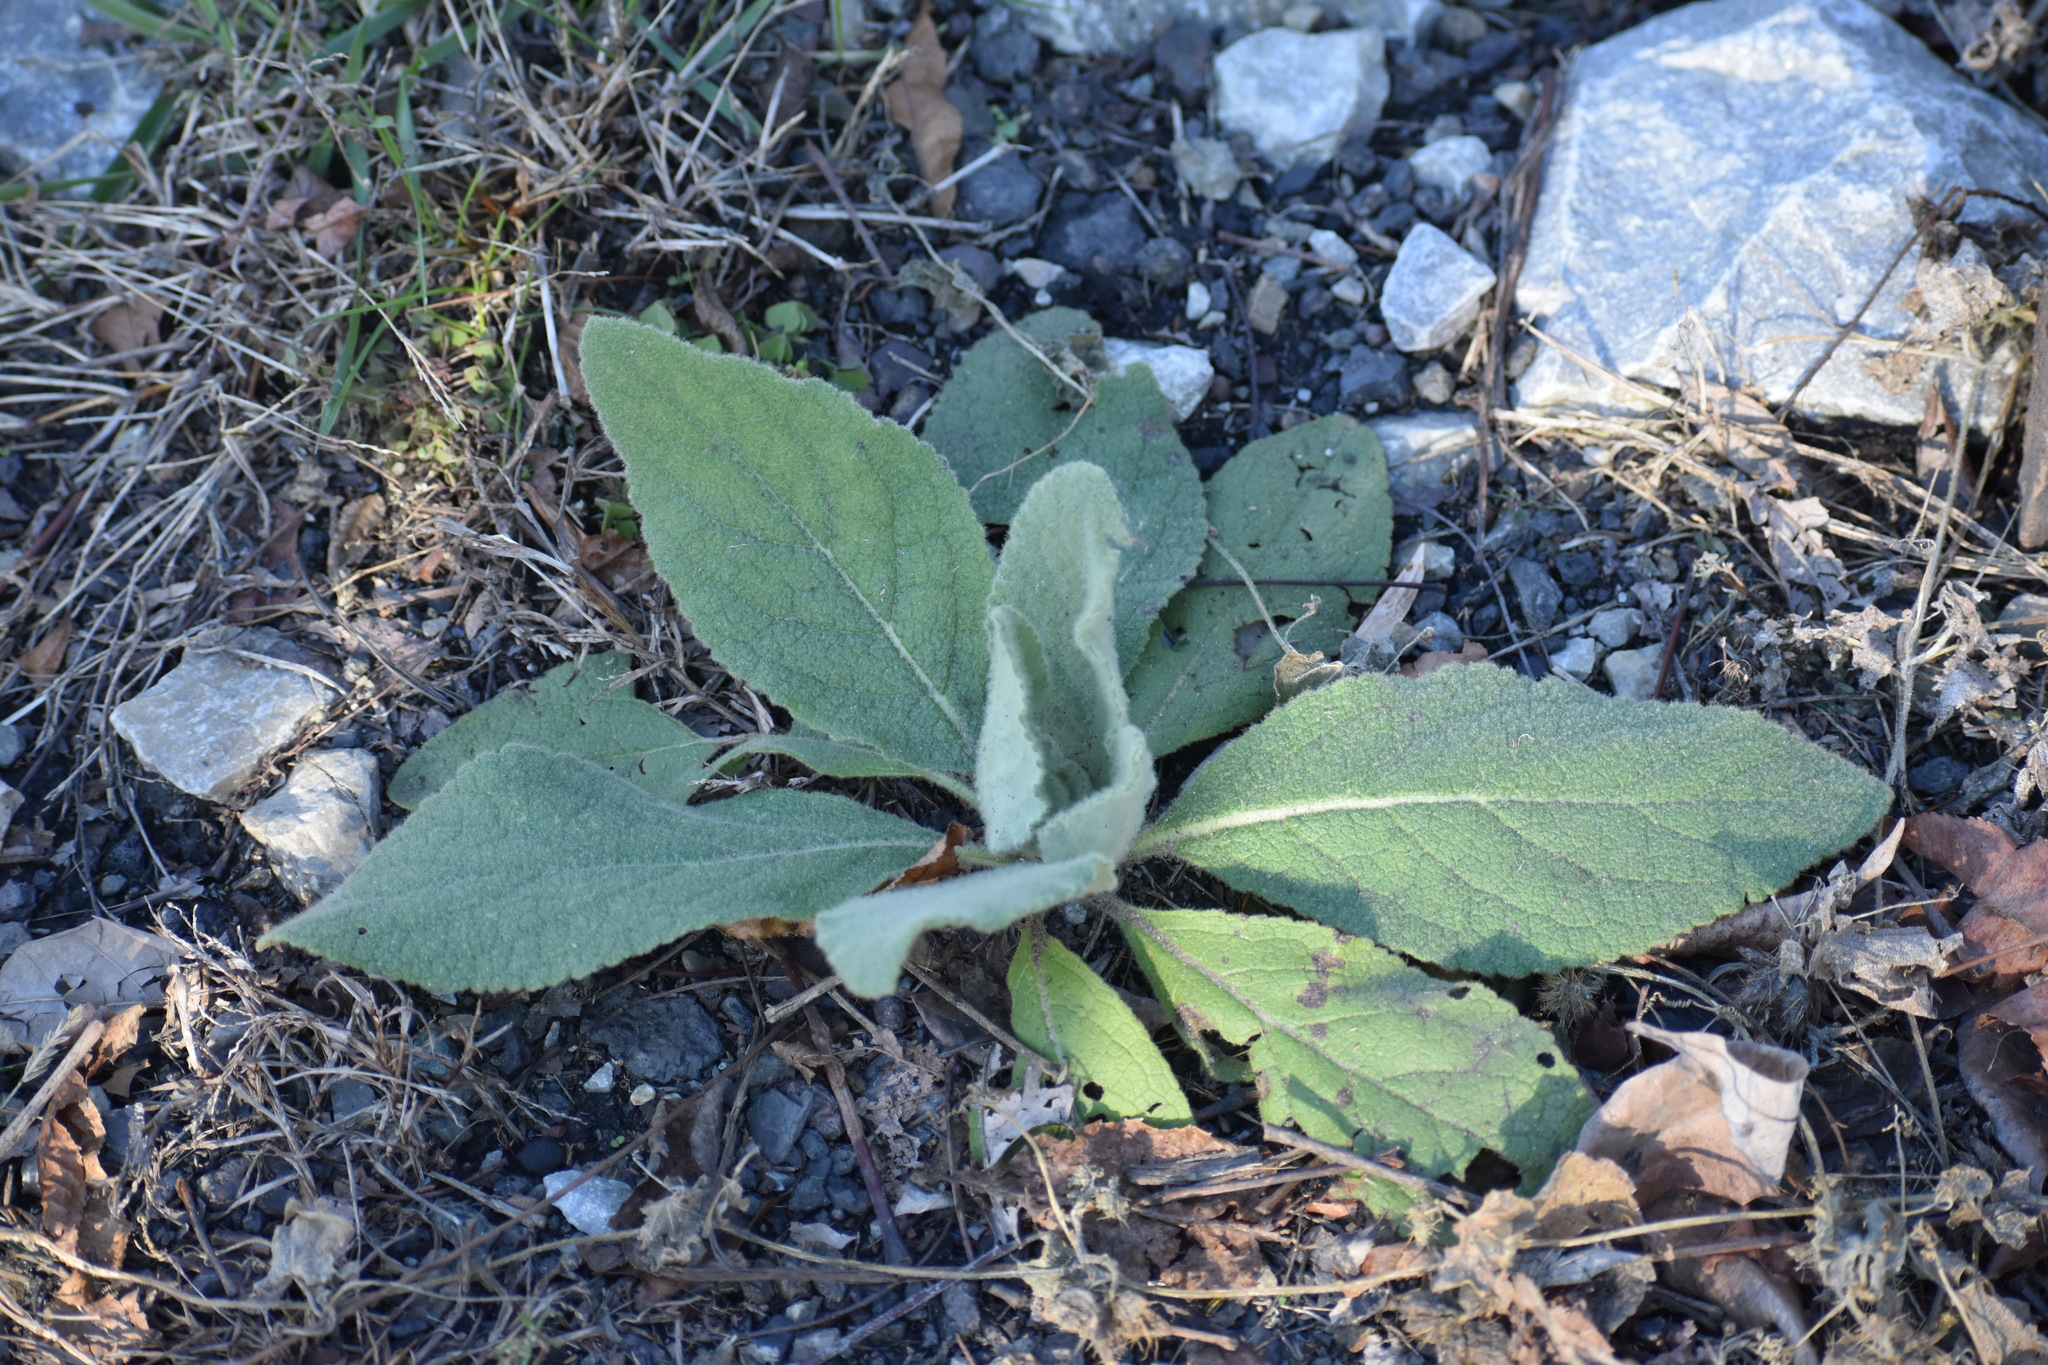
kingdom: Plantae
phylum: Tracheophyta
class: Magnoliopsida
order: Lamiales
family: Scrophulariaceae
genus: Verbascum
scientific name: Verbascum thapsus
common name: Common mullein
